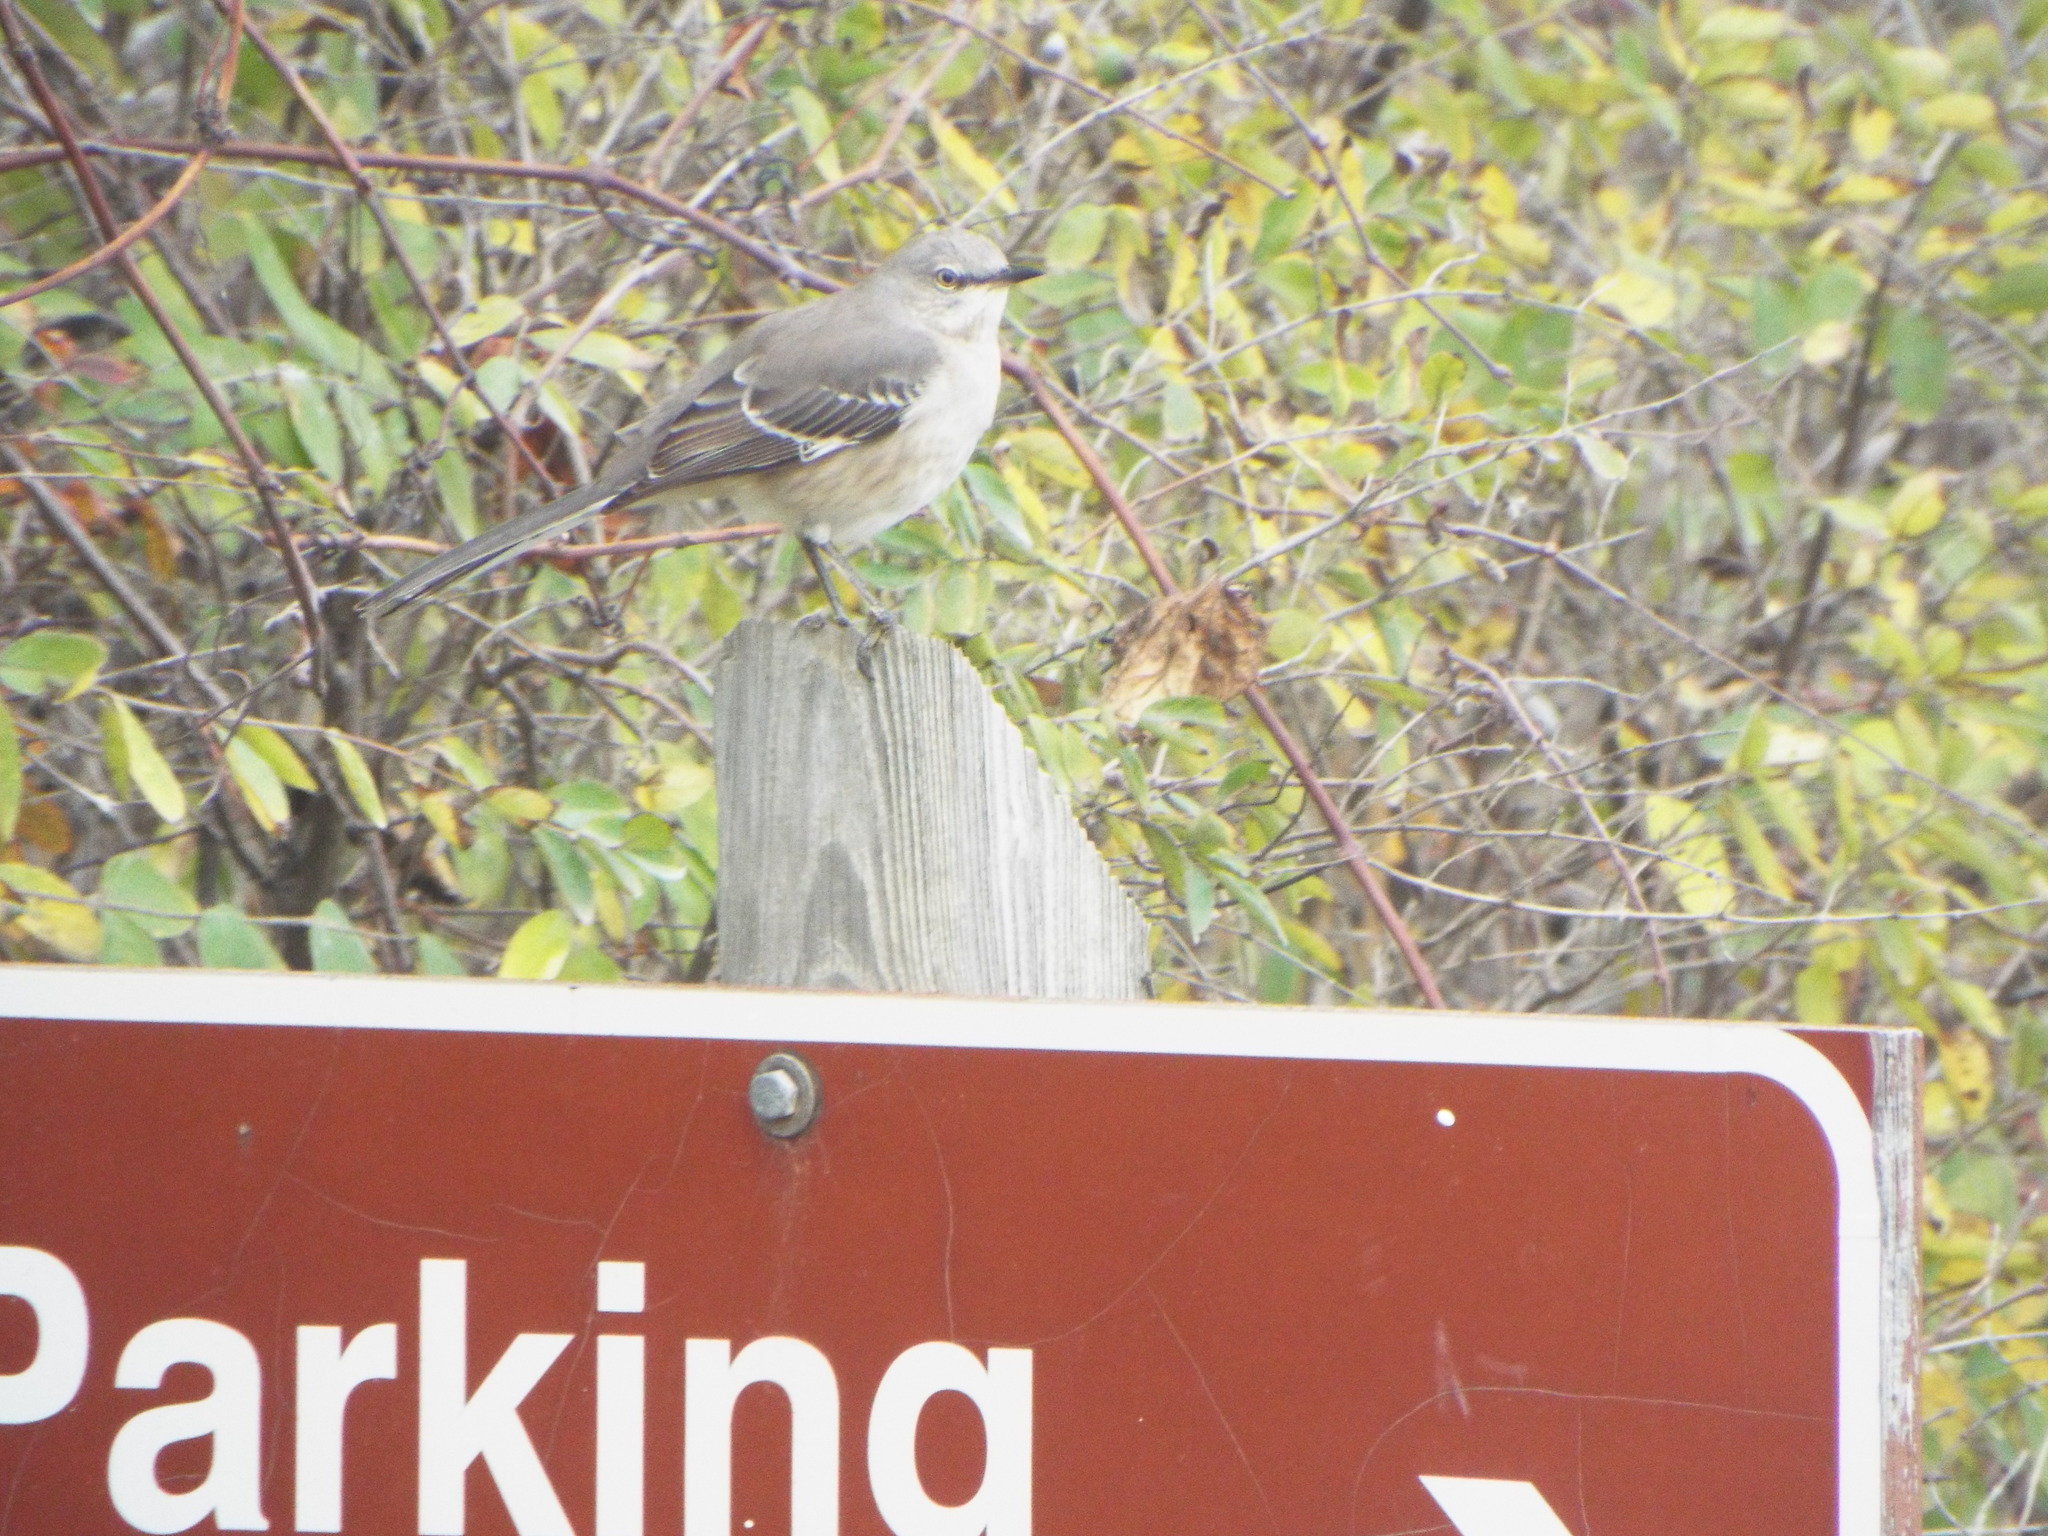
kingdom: Animalia
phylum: Chordata
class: Aves
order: Passeriformes
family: Mimidae
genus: Mimus
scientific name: Mimus polyglottos
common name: Northern mockingbird
